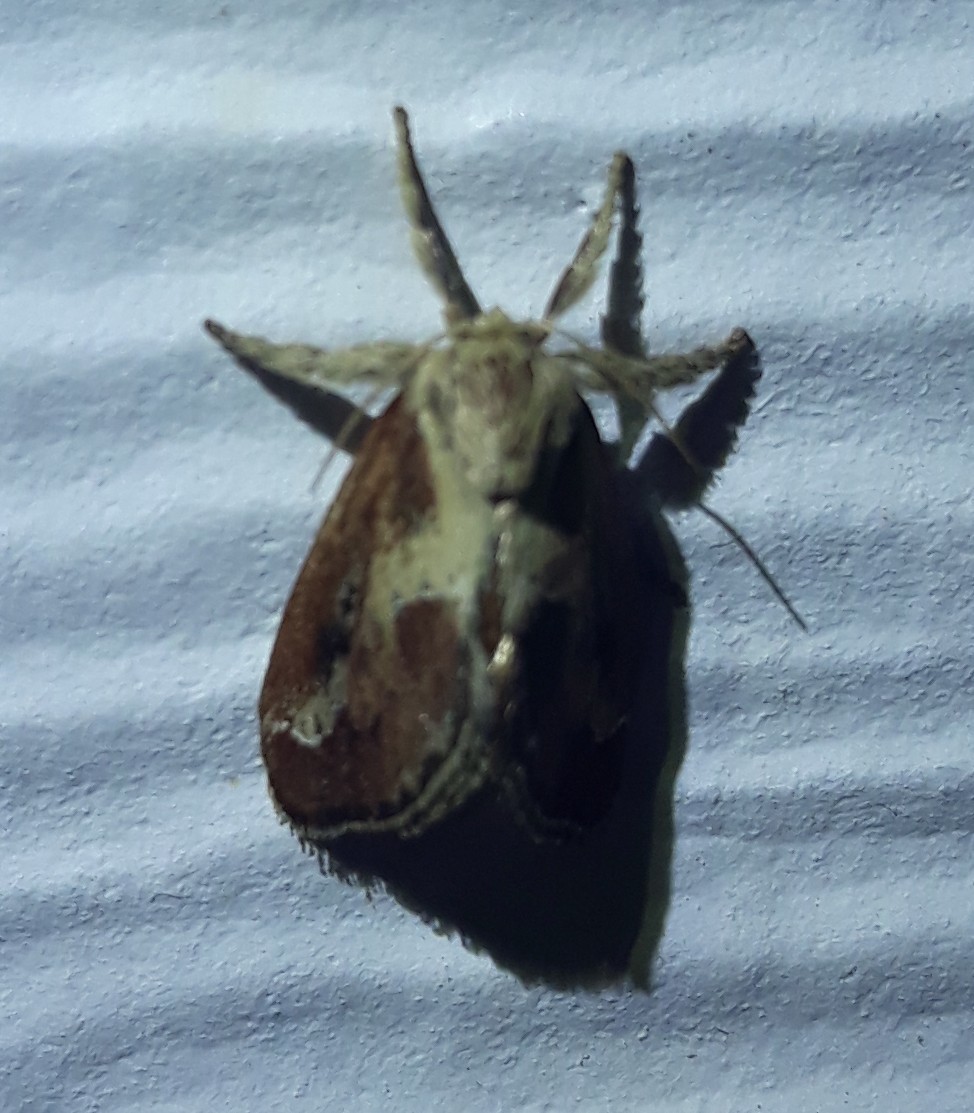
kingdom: Animalia
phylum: Arthropoda
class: Insecta
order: Lepidoptera
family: Limacodidae
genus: Adoneta
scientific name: Adoneta spinuloides
